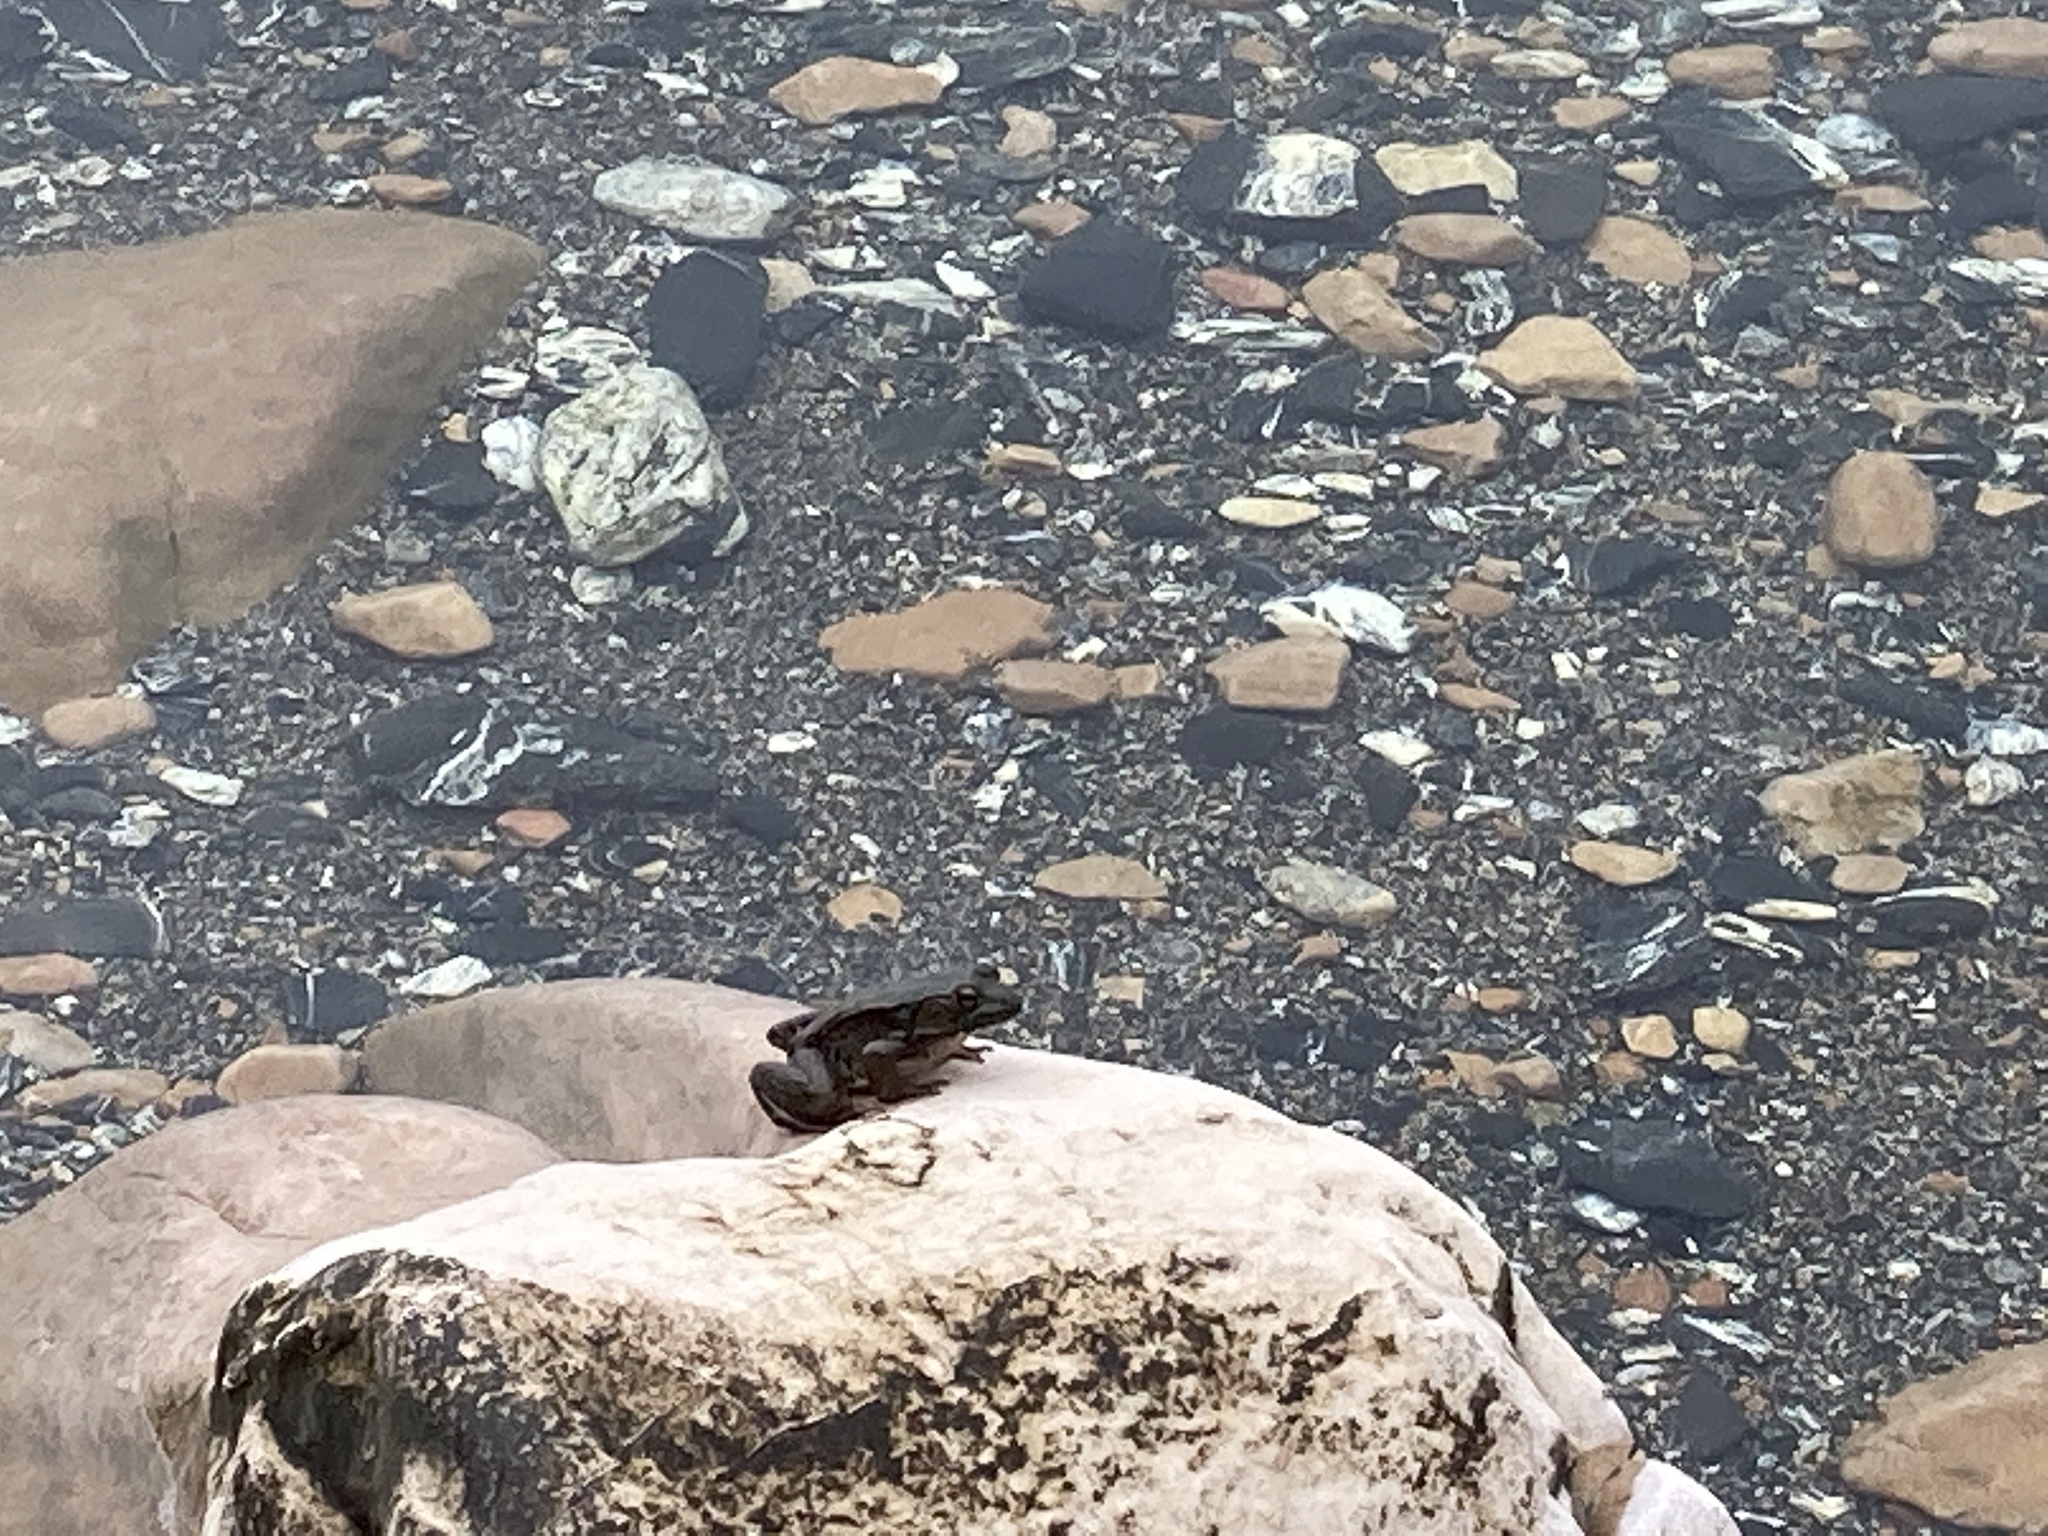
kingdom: Animalia
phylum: Chordata
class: Amphibia
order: Anura
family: Ranidae
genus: Lithobates
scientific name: Lithobates clamitans
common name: Green frog
